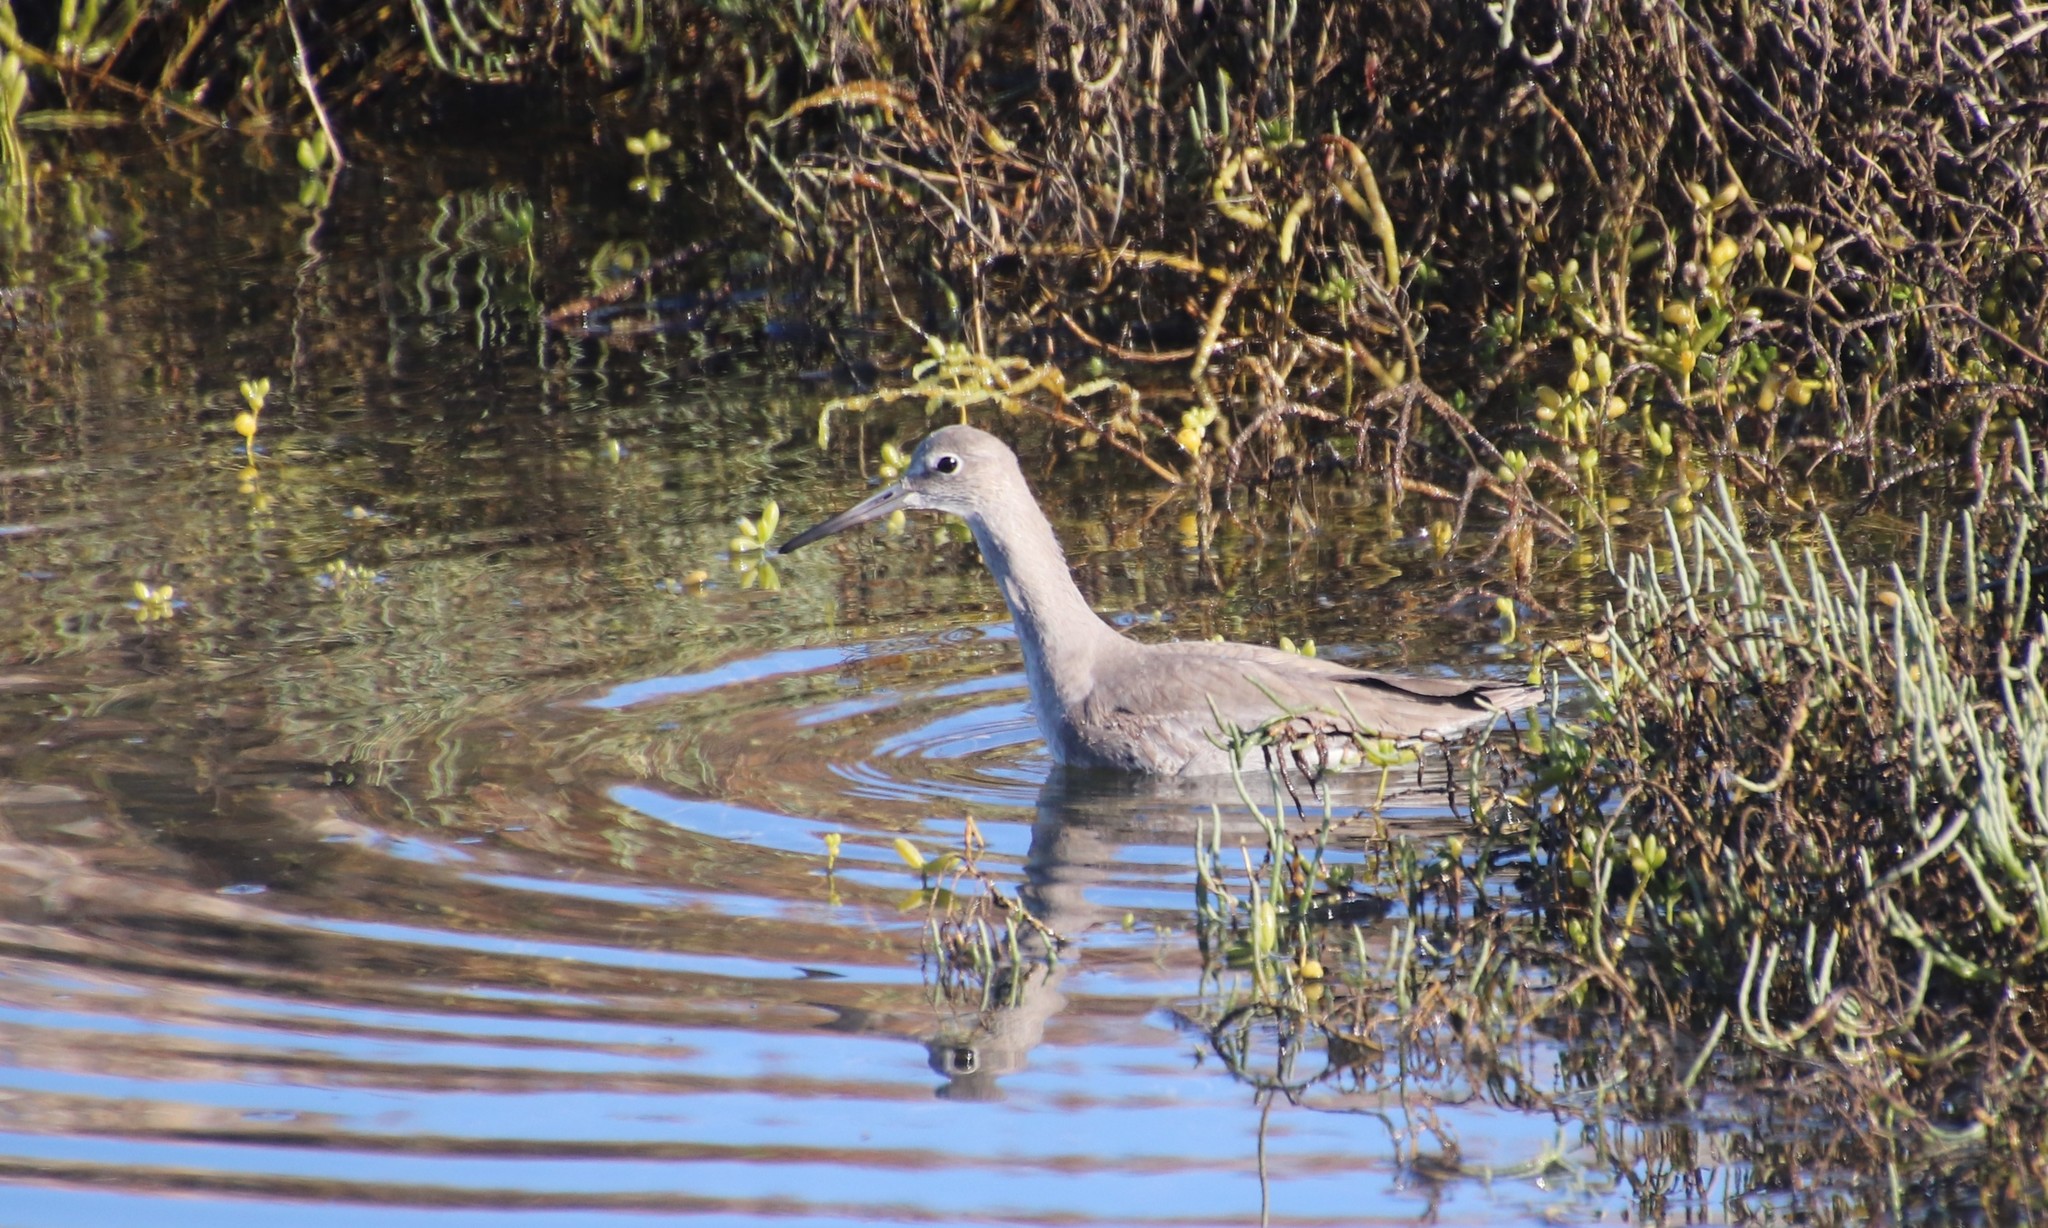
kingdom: Animalia
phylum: Chordata
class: Aves
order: Charadriiformes
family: Scolopacidae
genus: Tringa
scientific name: Tringa semipalmata
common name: Willet
